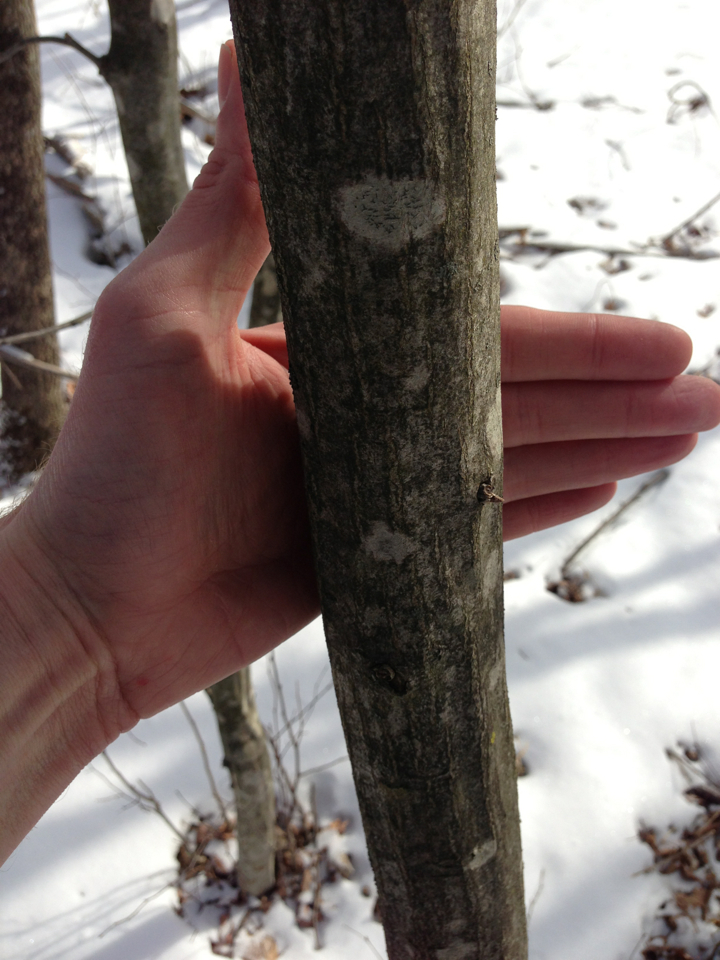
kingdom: Plantae
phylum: Tracheophyta
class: Magnoliopsida
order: Fagales
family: Betulaceae
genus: Carpinus
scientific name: Carpinus caroliniana
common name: American hornbeam
